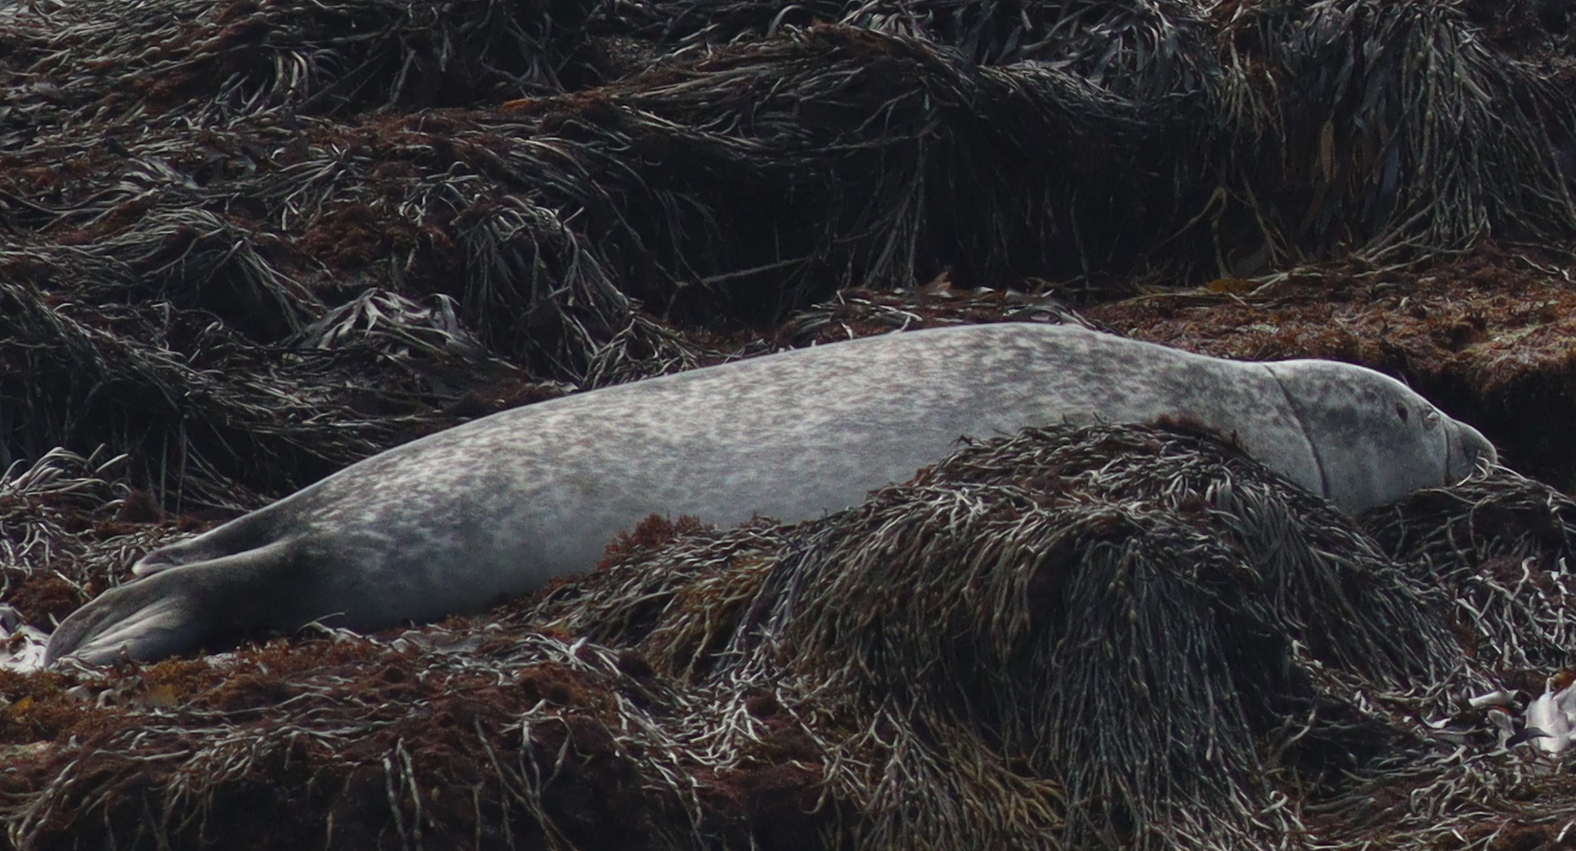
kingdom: Animalia
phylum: Chordata
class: Mammalia
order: Carnivora
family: Phocidae
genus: Phoca
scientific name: Phoca vitulina
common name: Harbor seal
